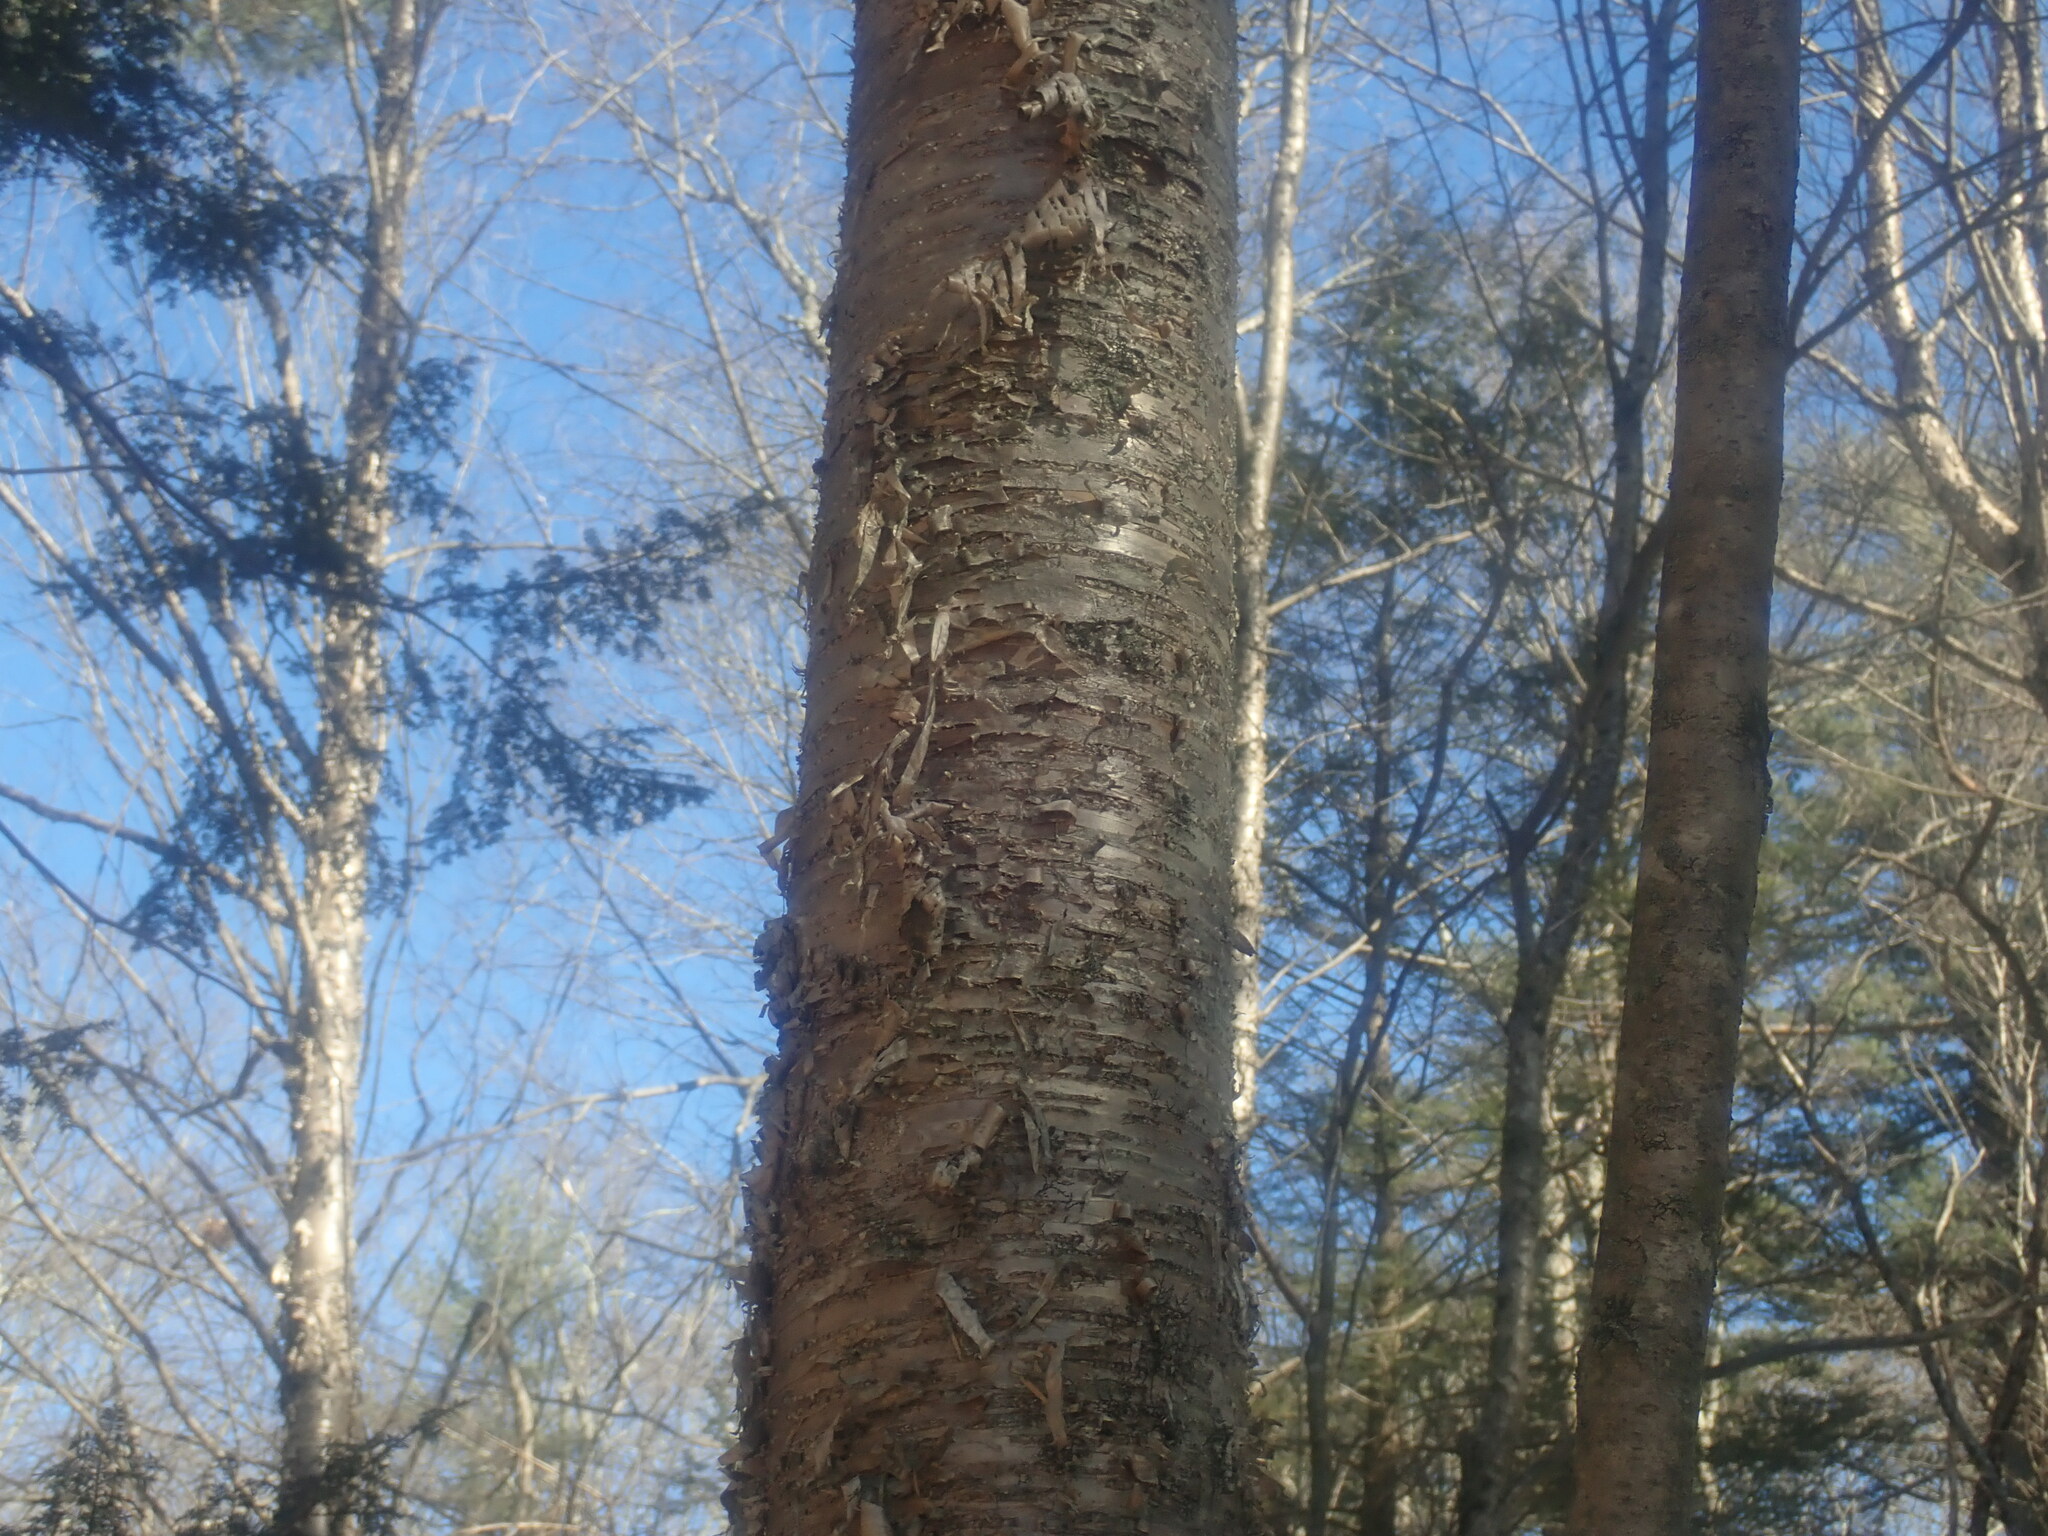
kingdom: Plantae
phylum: Tracheophyta
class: Magnoliopsida
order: Fagales
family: Betulaceae
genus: Betula
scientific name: Betula alleghaniensis
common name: Yellow birch
